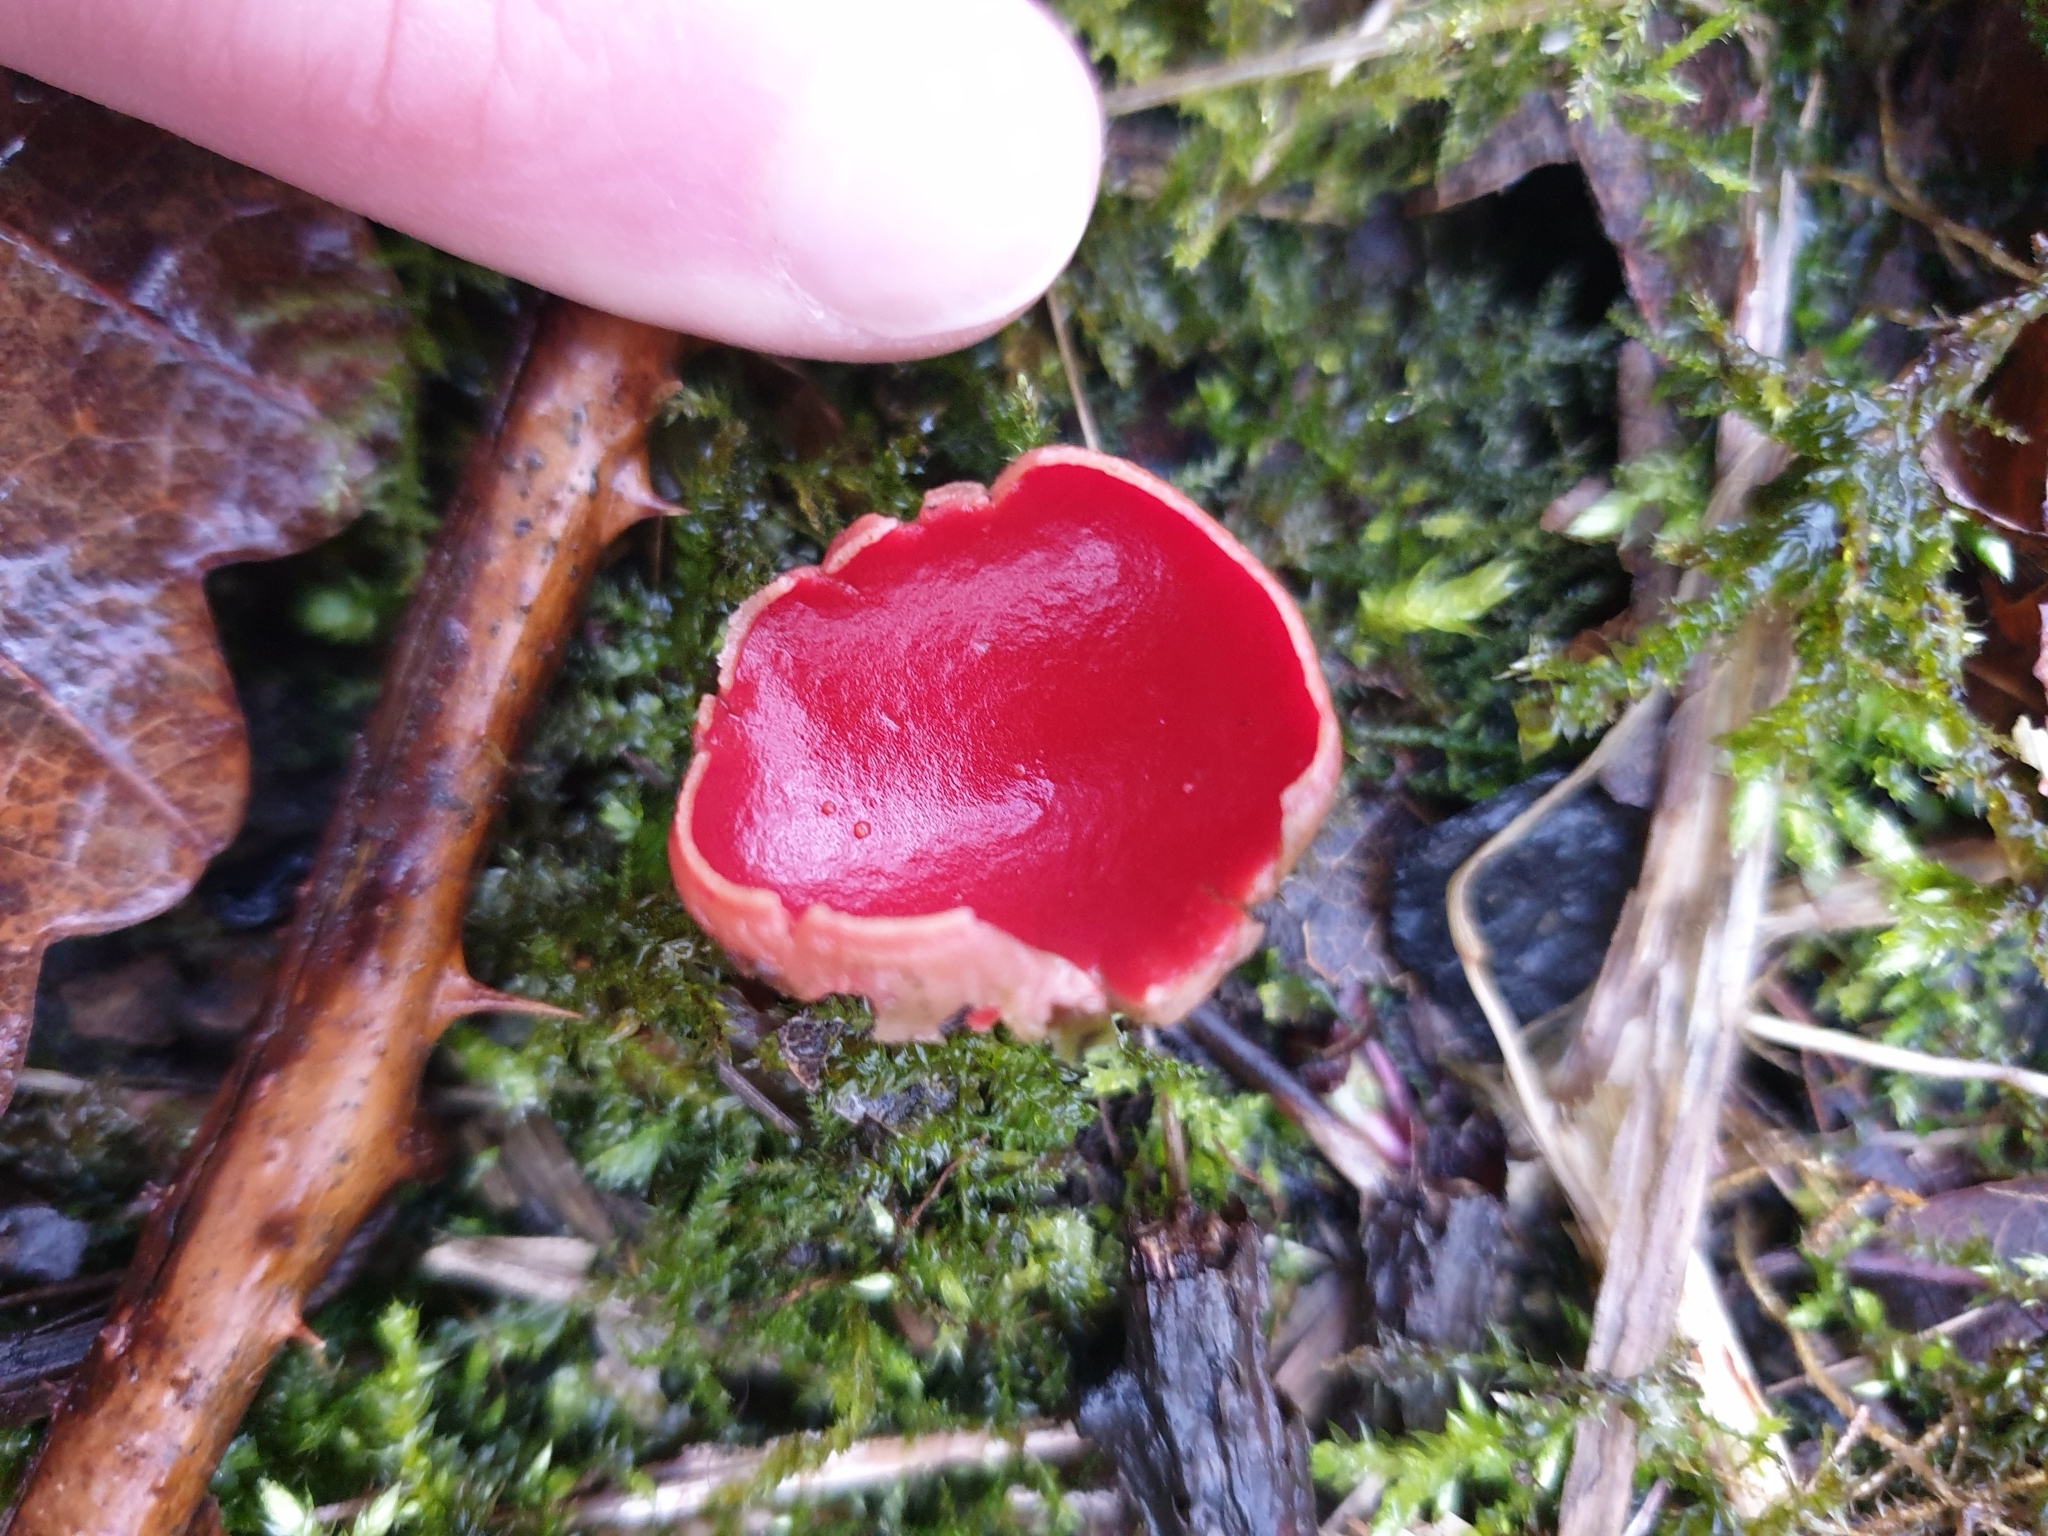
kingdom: Fungi
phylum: Ascomycota
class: Pezizomycetes
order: Pezizales
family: Sarcoscyphaceae
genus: Sarcoscypha
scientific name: Sarcoscypha austriaca
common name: Scarlet elfcup
